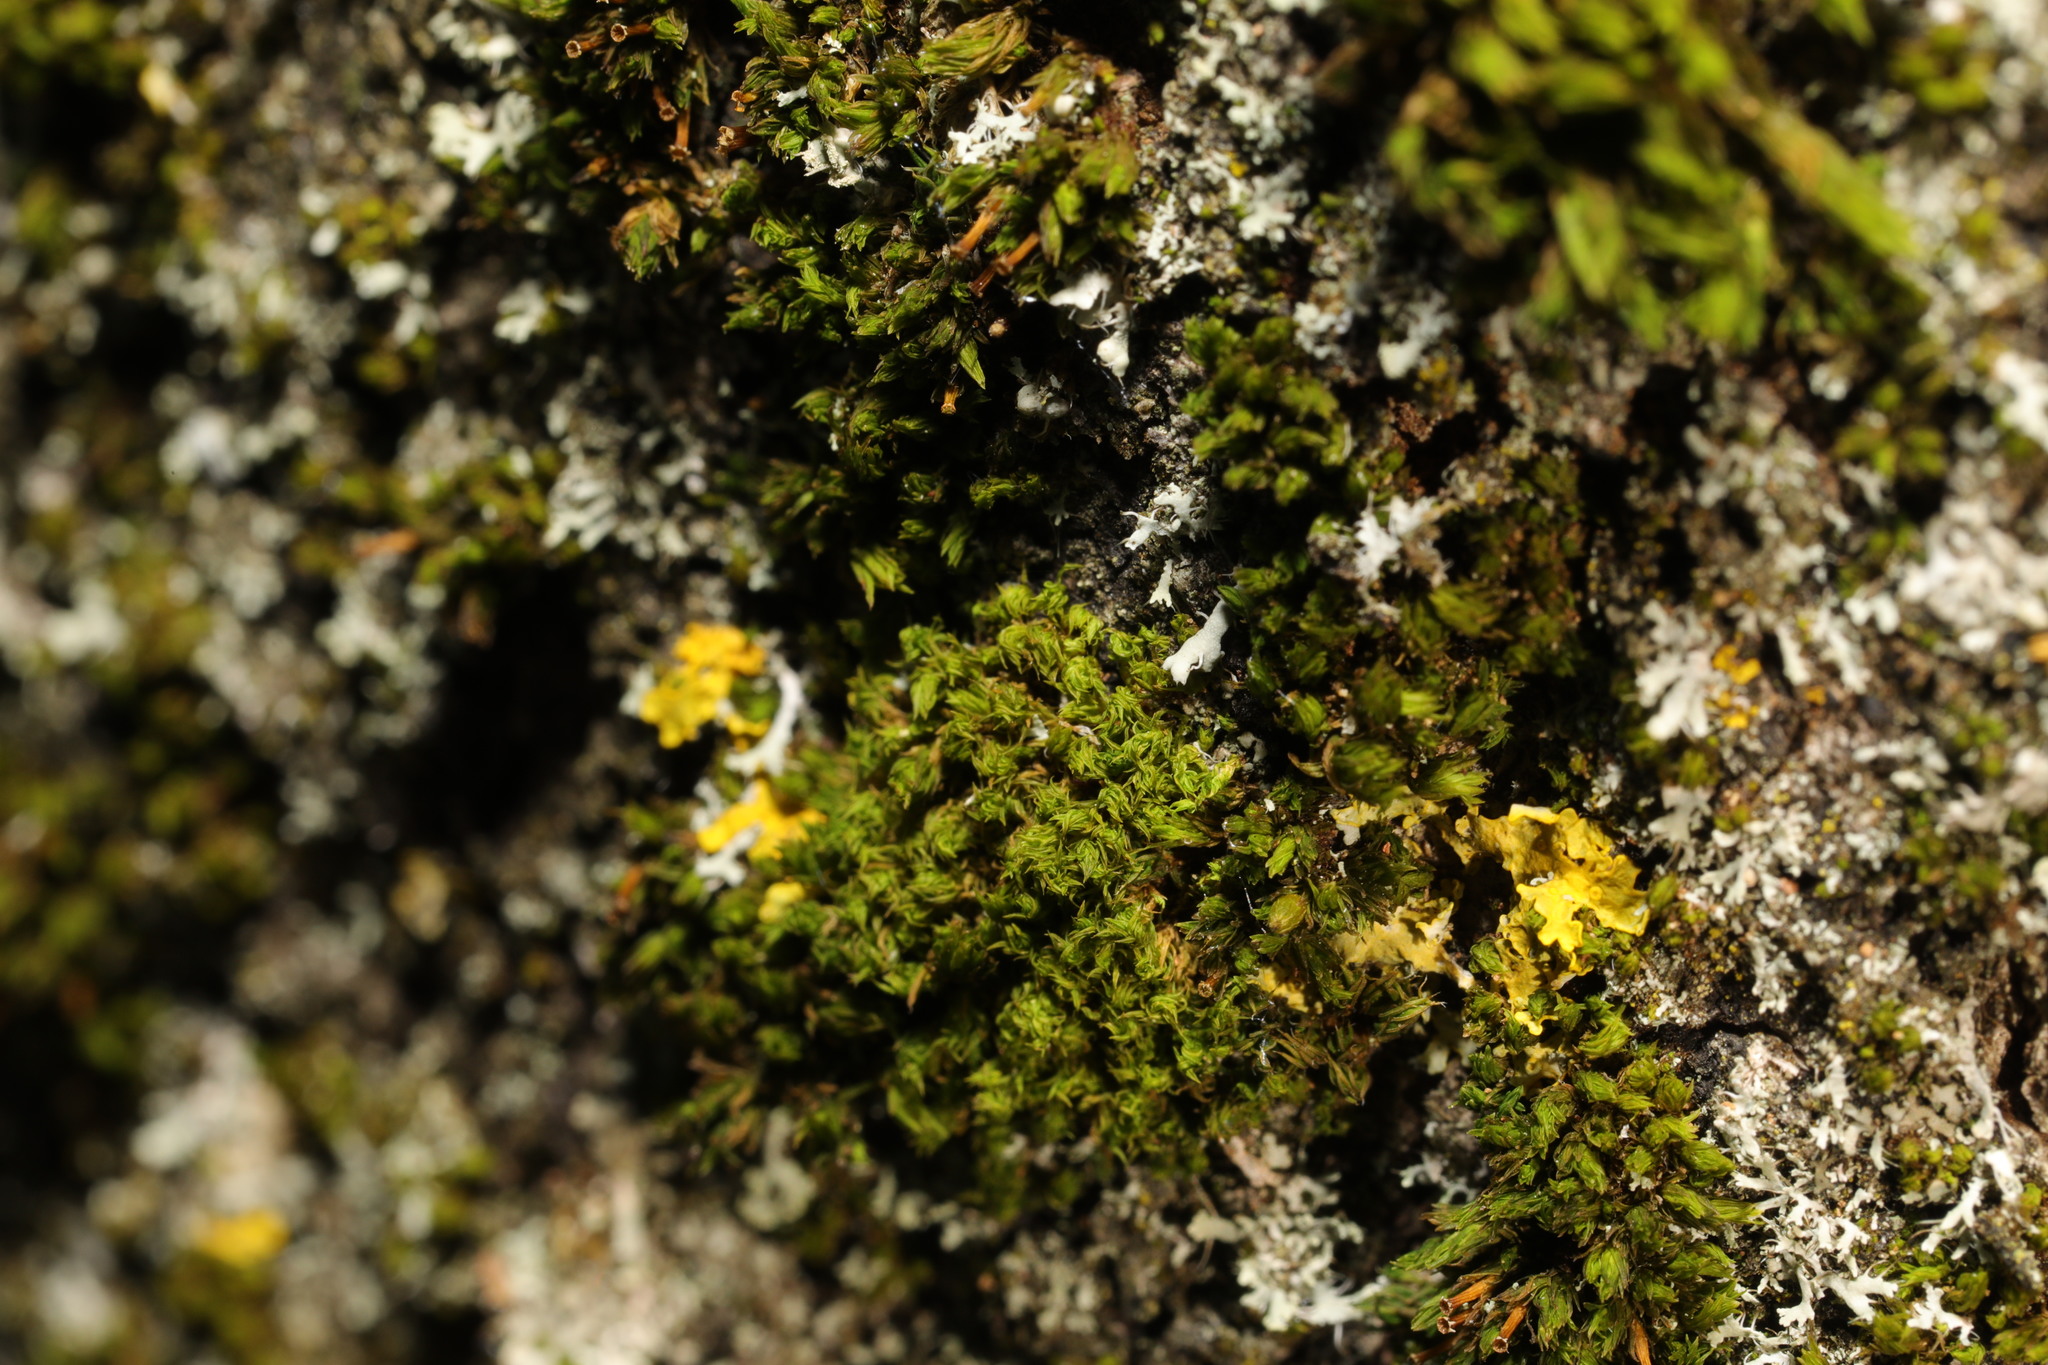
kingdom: Plantae
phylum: Bryophyta
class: Bryopsida
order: Orthotrichales
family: Orthotrichaceae
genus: Lewinskya
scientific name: Lewinskya affinis
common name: Wood bristle-moss
